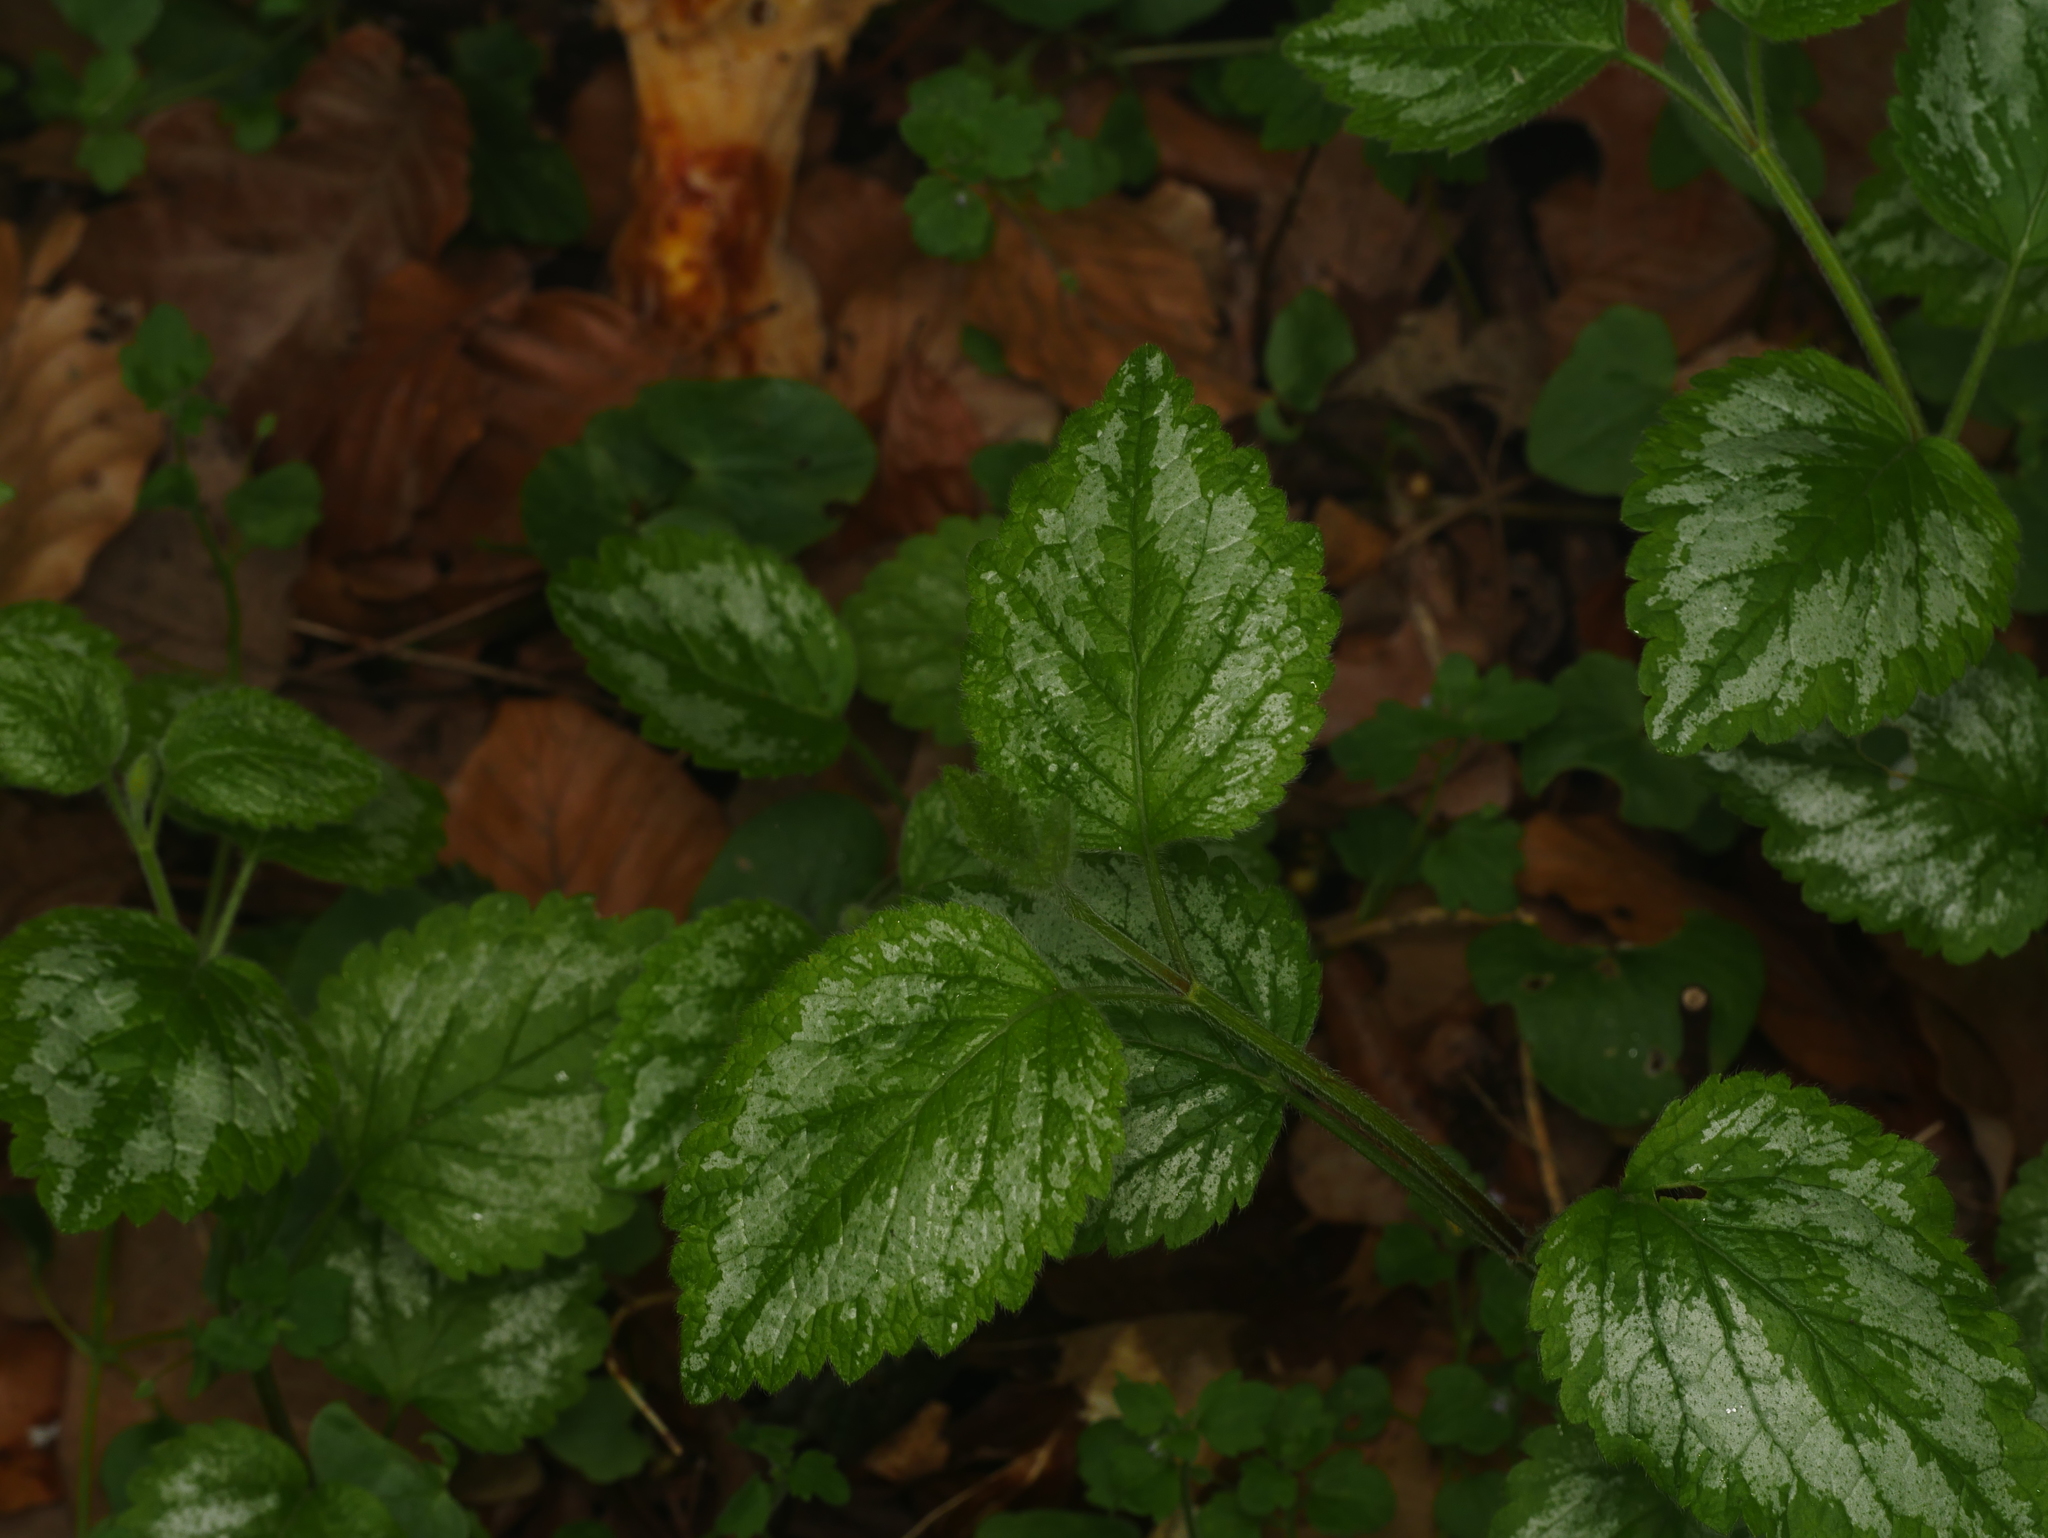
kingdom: Plantae
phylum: Tracheophyta
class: Magnoliopsida
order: Lamiales
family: Lamiaceae
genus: Lamium
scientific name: Lamium galeobdolon
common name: Yellow archangel
